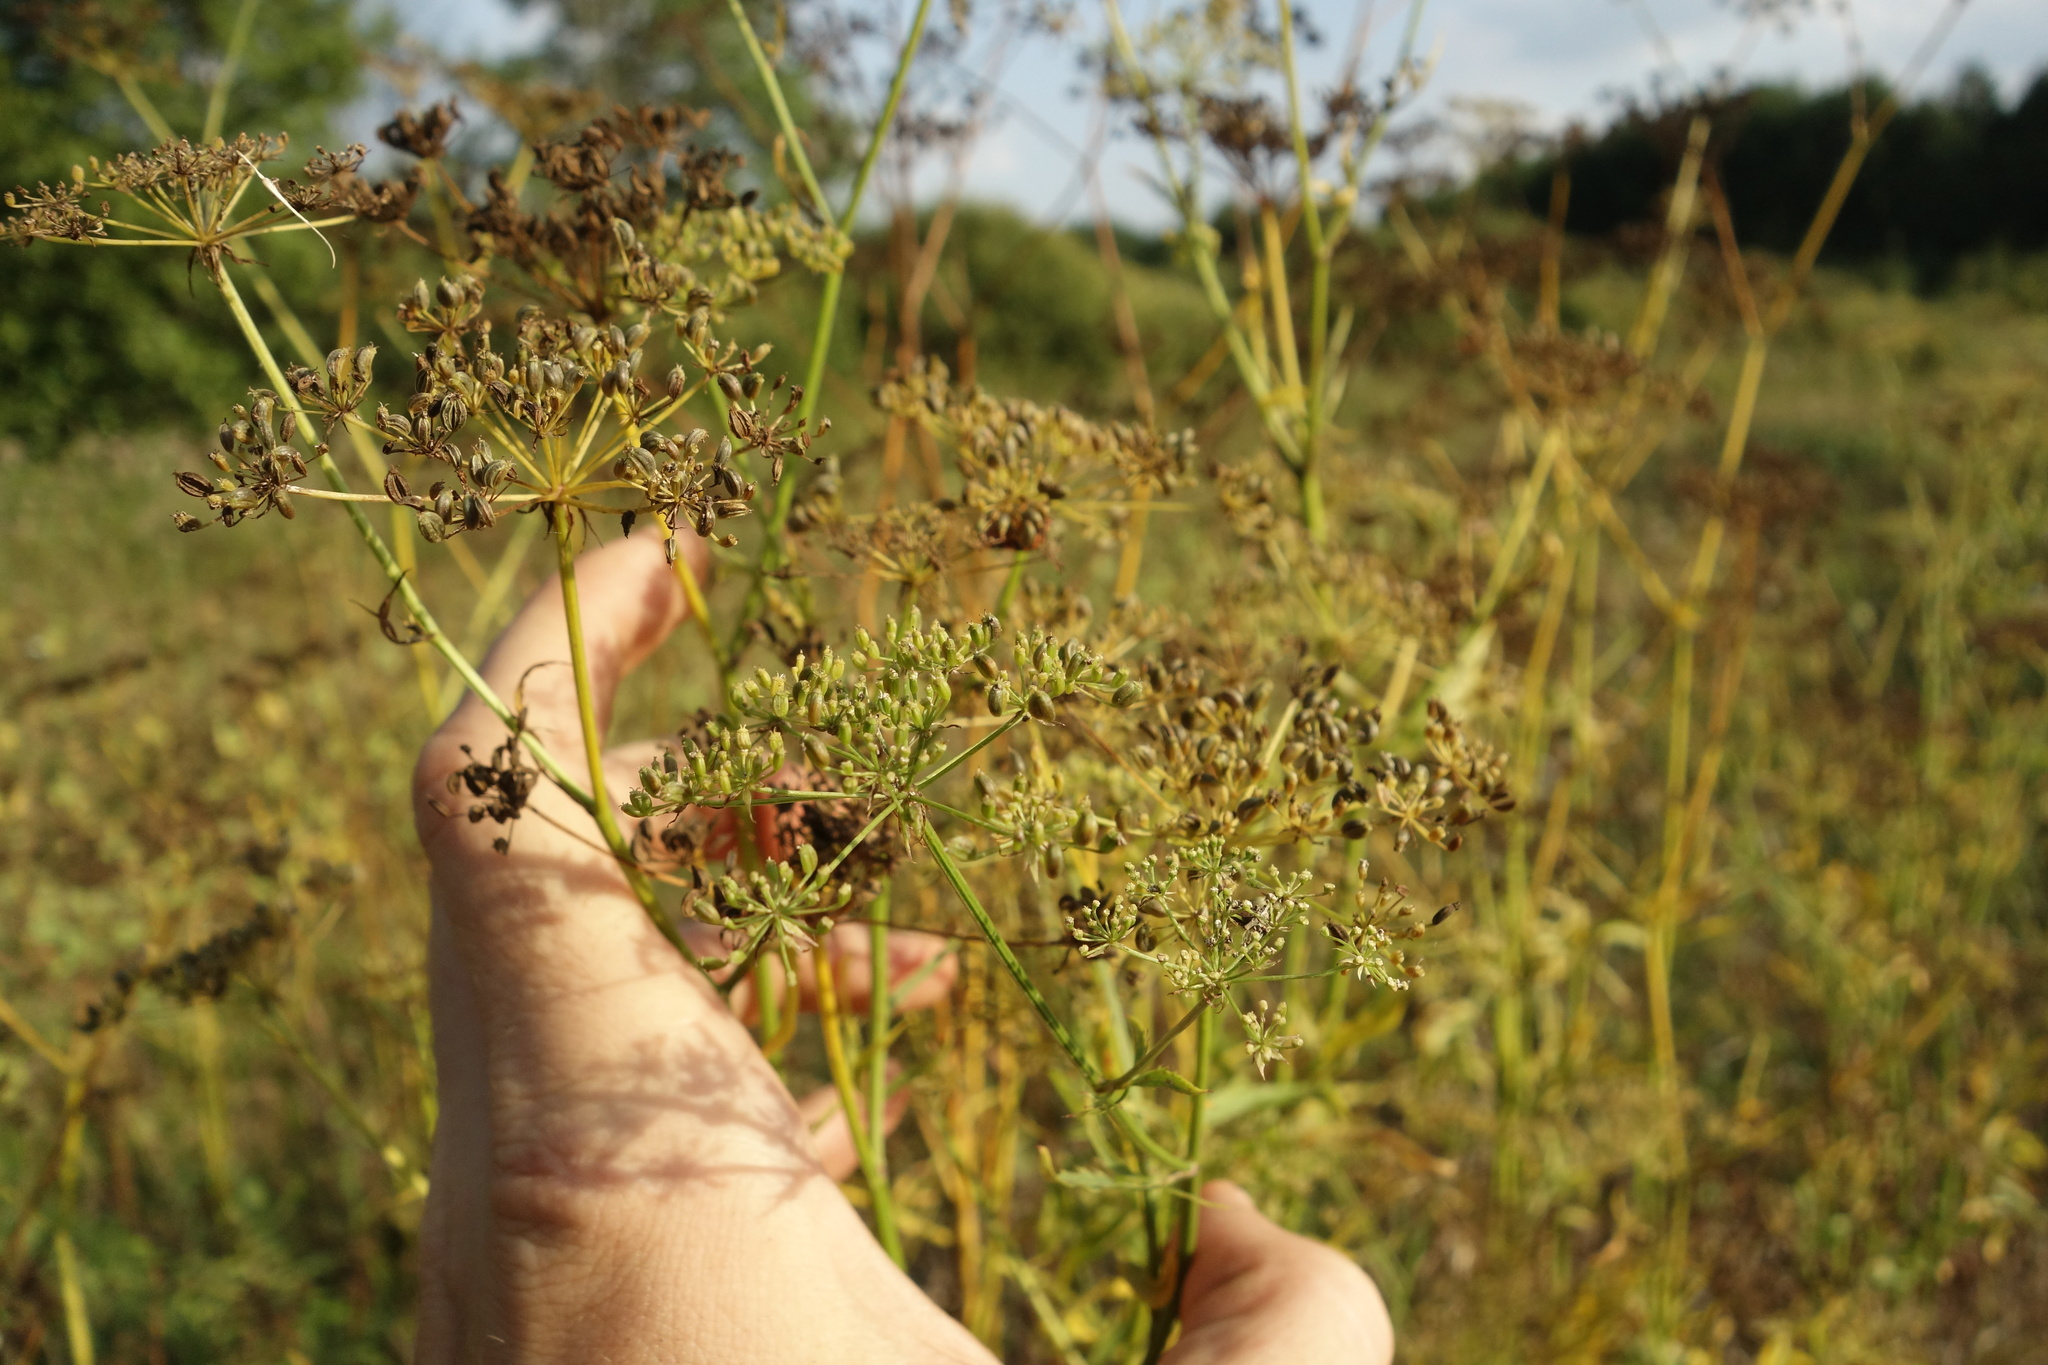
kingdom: Plantae
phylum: Tracheophyta
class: Magnoliopsida
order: Apiales
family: Apiaceae
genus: Sium
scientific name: Sium sisarum
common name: Skirret
